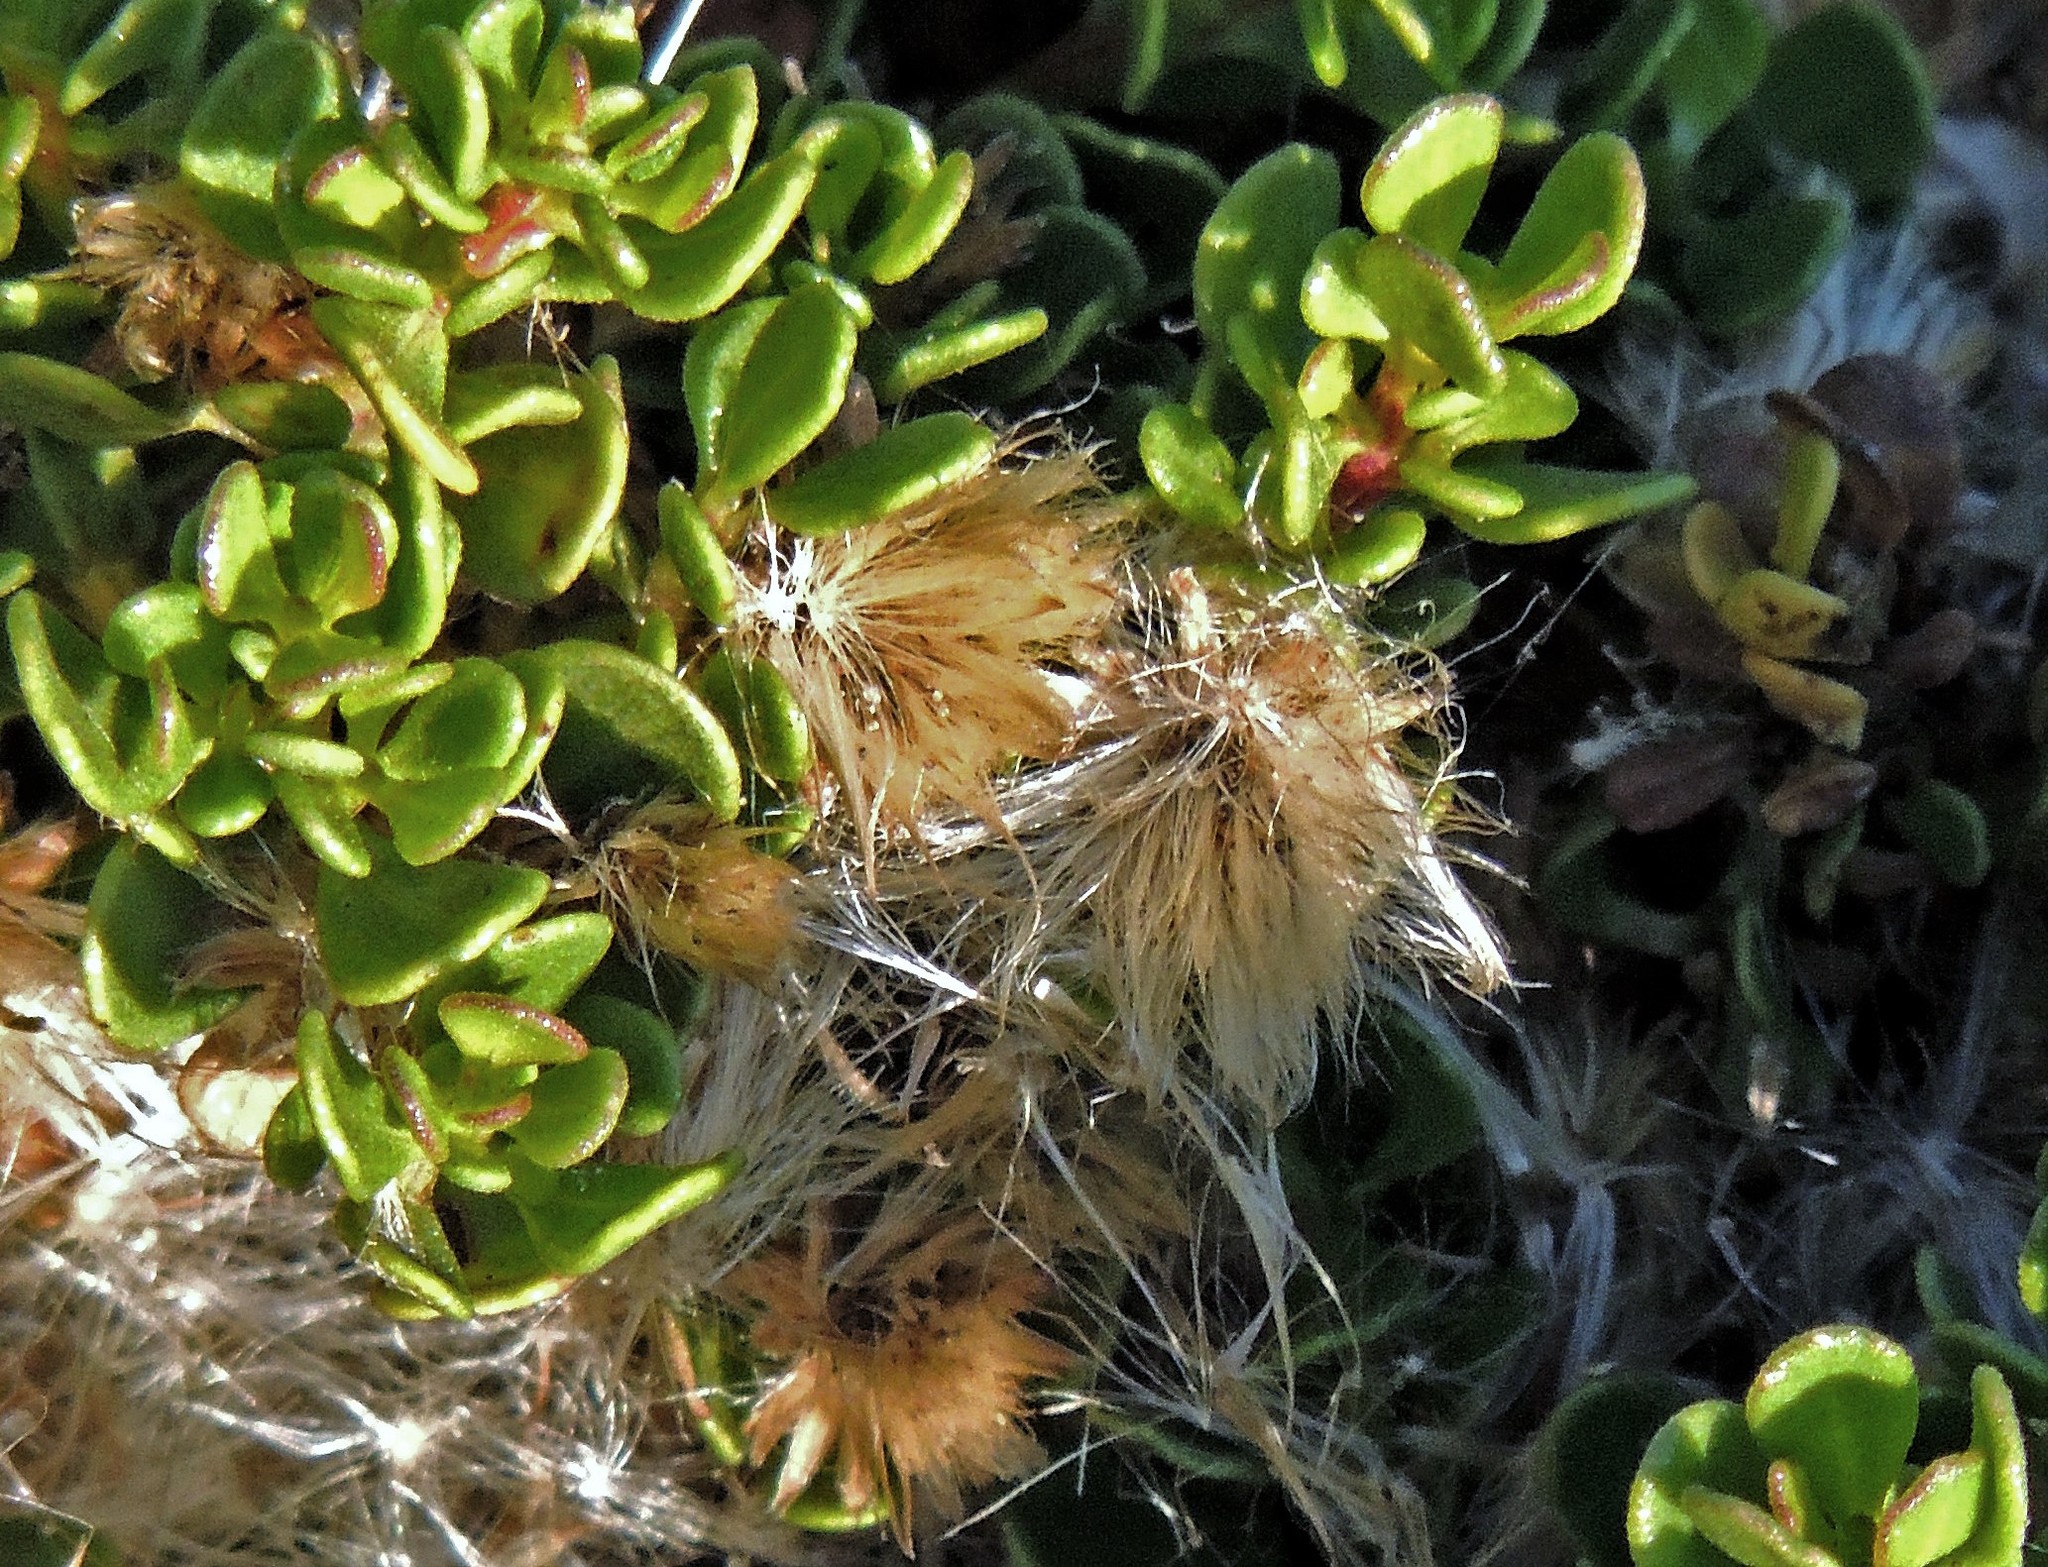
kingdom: Plantae
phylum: Tracheophyta
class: Magnoliopsida
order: Asterales
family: Asteraceae
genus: Baccharis
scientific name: Baccharis magellanica
